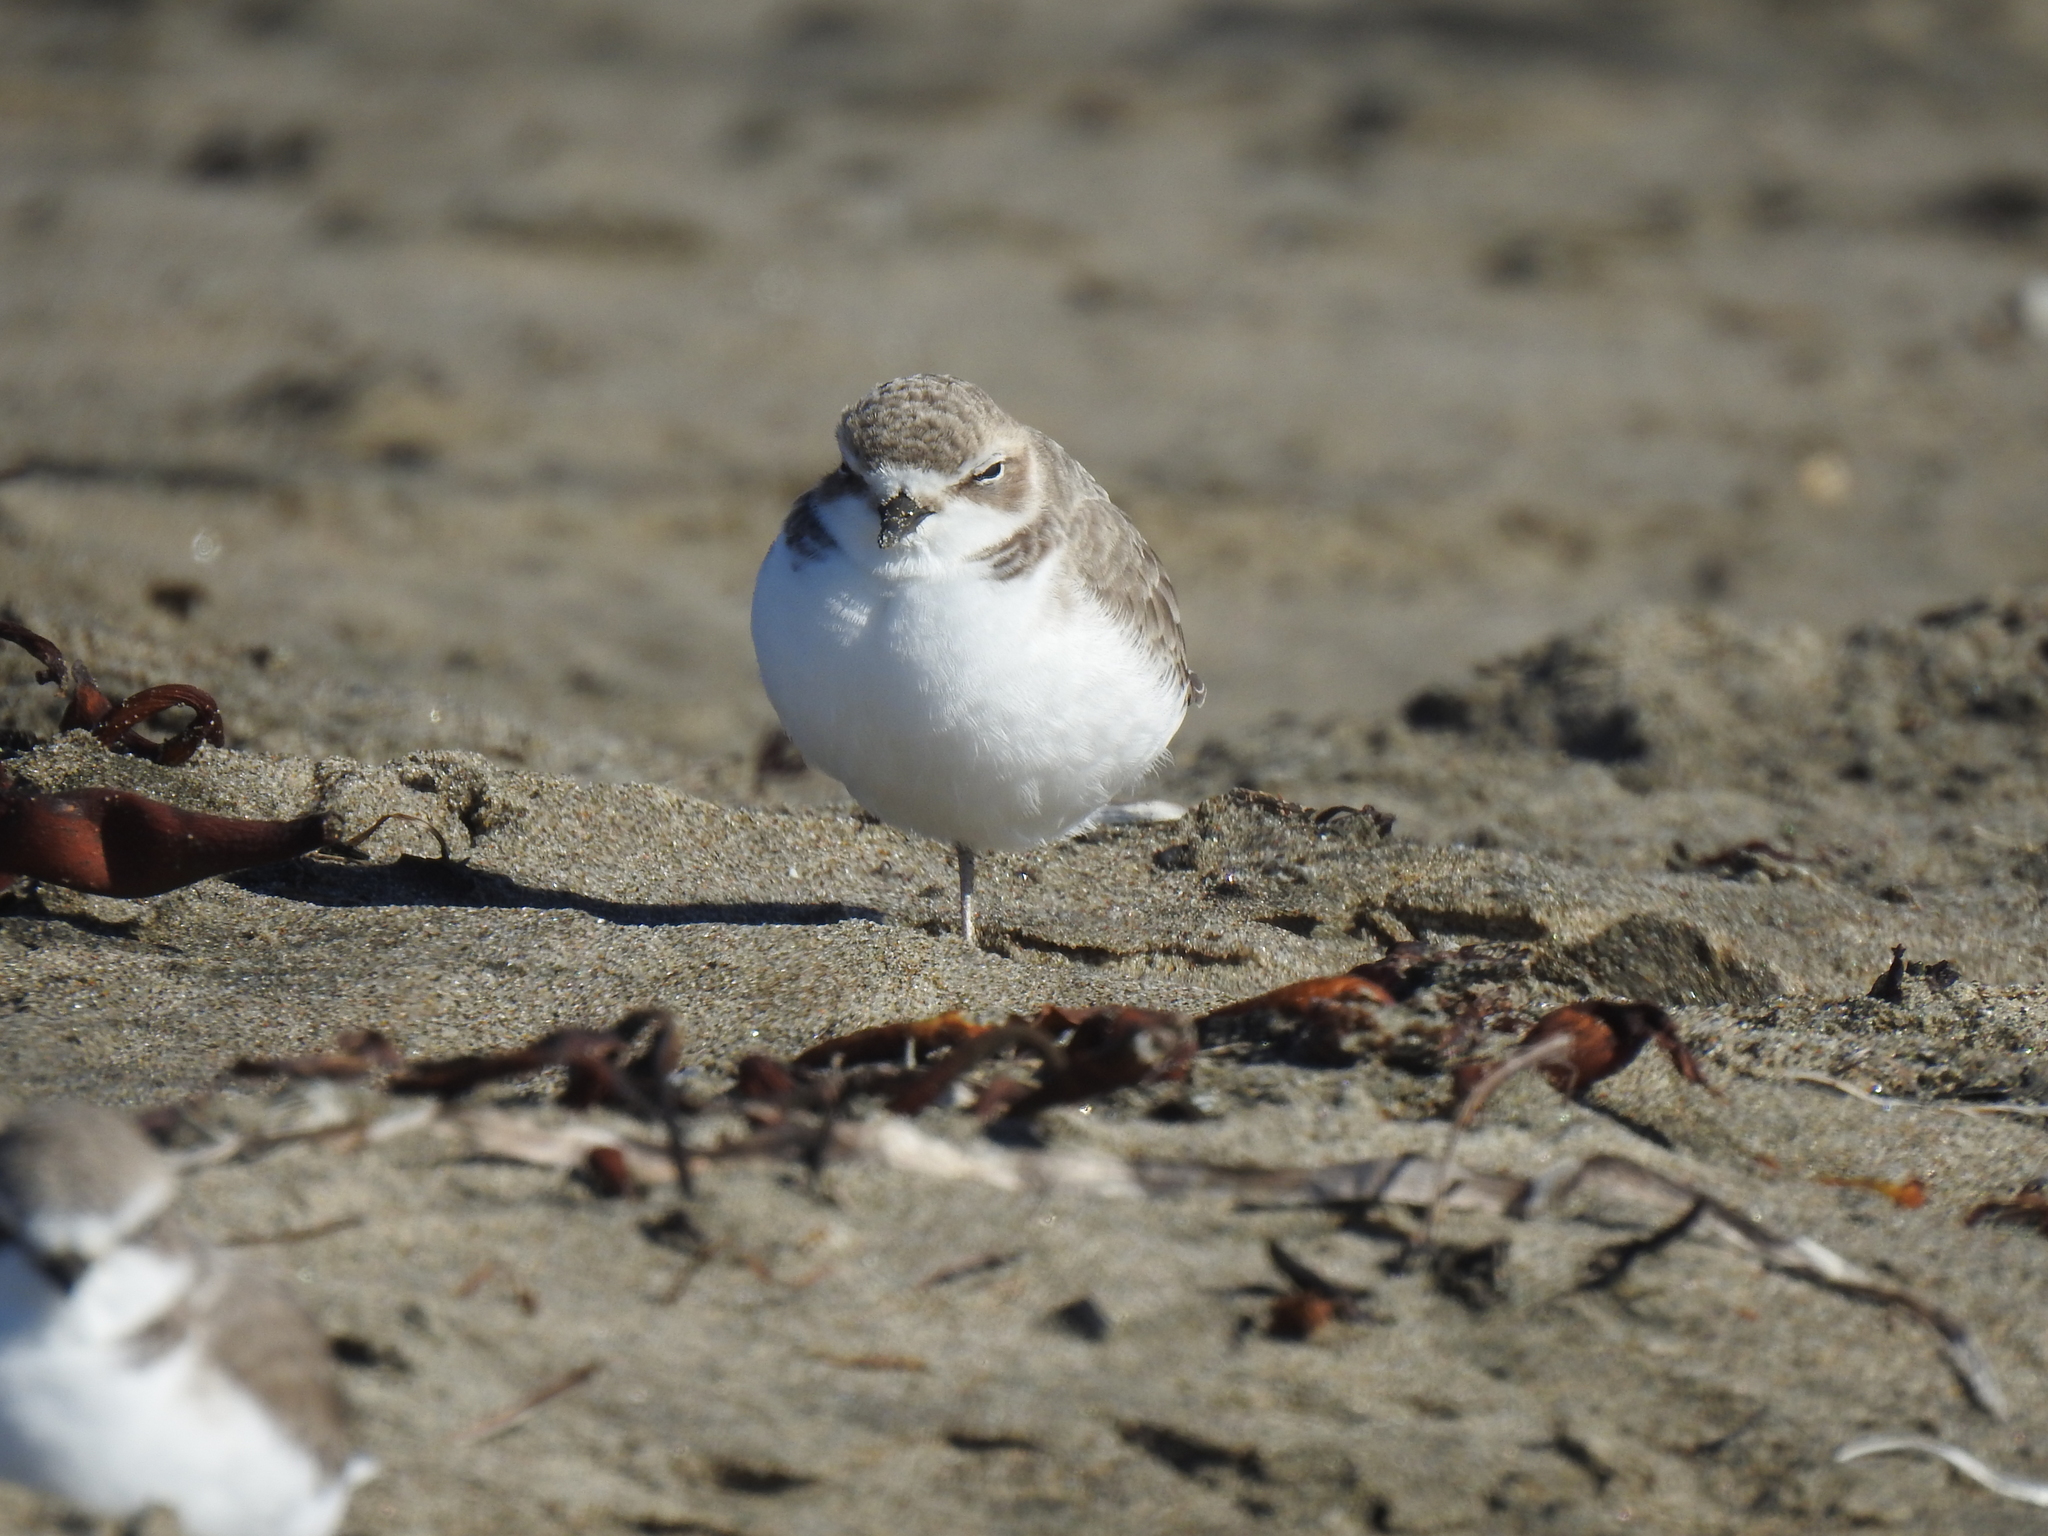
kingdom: Animalia
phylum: Chordata
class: Aves
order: Charadriiformes
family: Charadriidae
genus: Anarhynchus
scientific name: Anarhynchus
